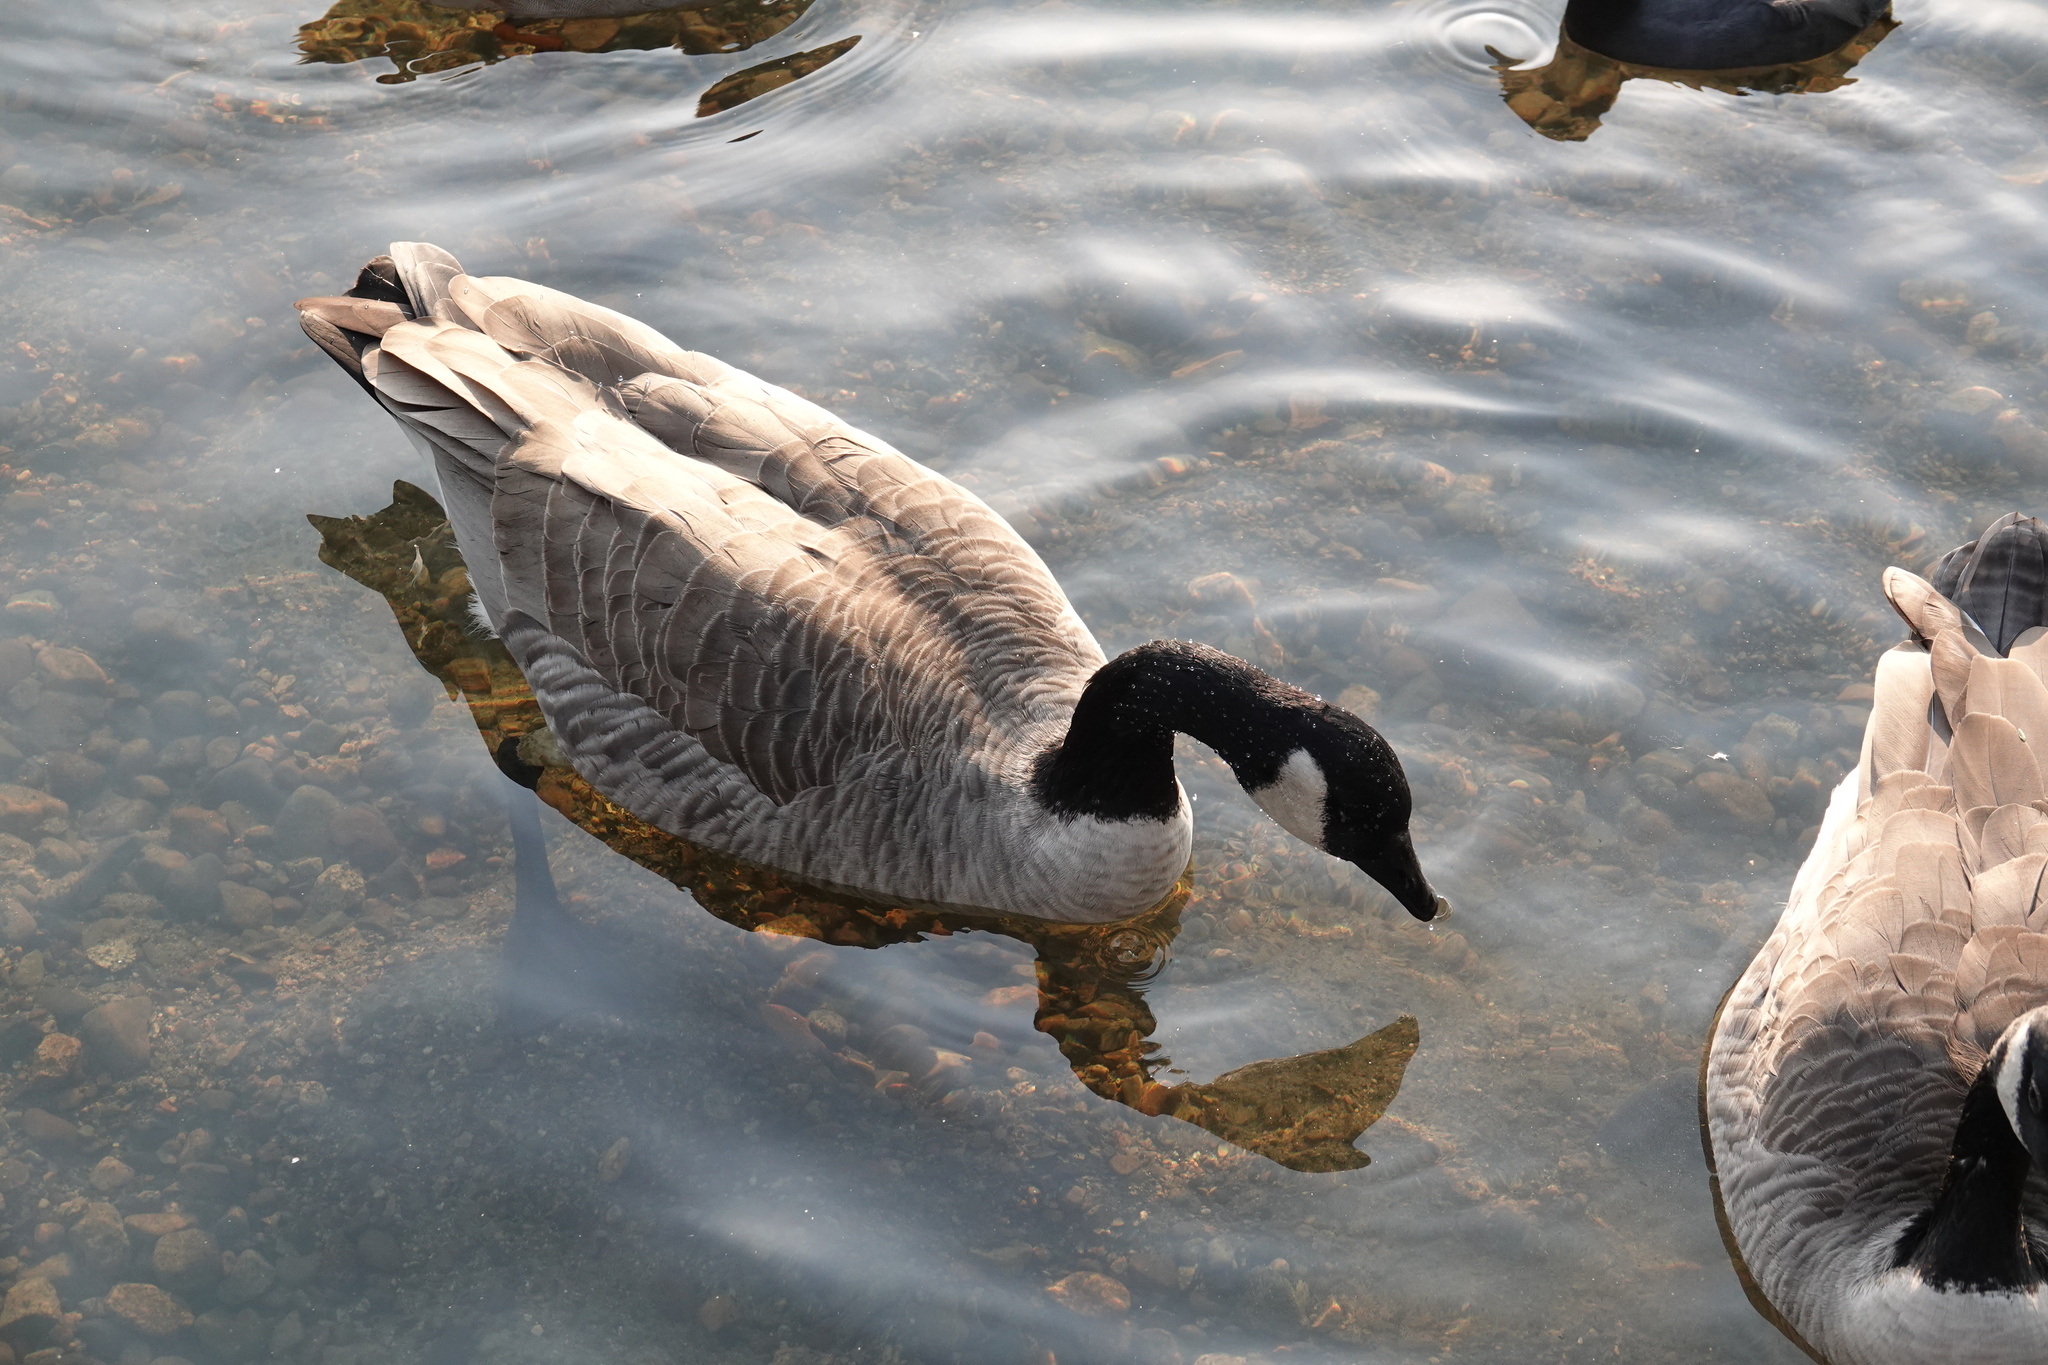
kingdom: Animalia
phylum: Chordata
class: Aves
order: Anseriformes
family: Anatidae
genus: Branta
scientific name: Branta canadensis
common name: Canada goose
